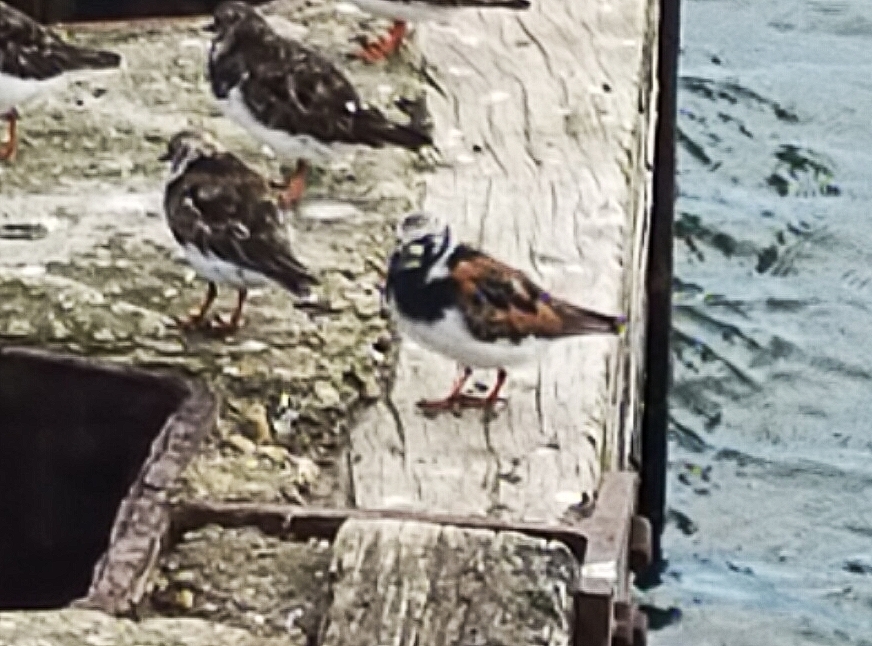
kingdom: Animalia
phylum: Chordata
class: Aves
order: Charadriiformes
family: Scolopacidae
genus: Arenaria
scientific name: Arenaria interpres
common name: Ruddy turnstone
